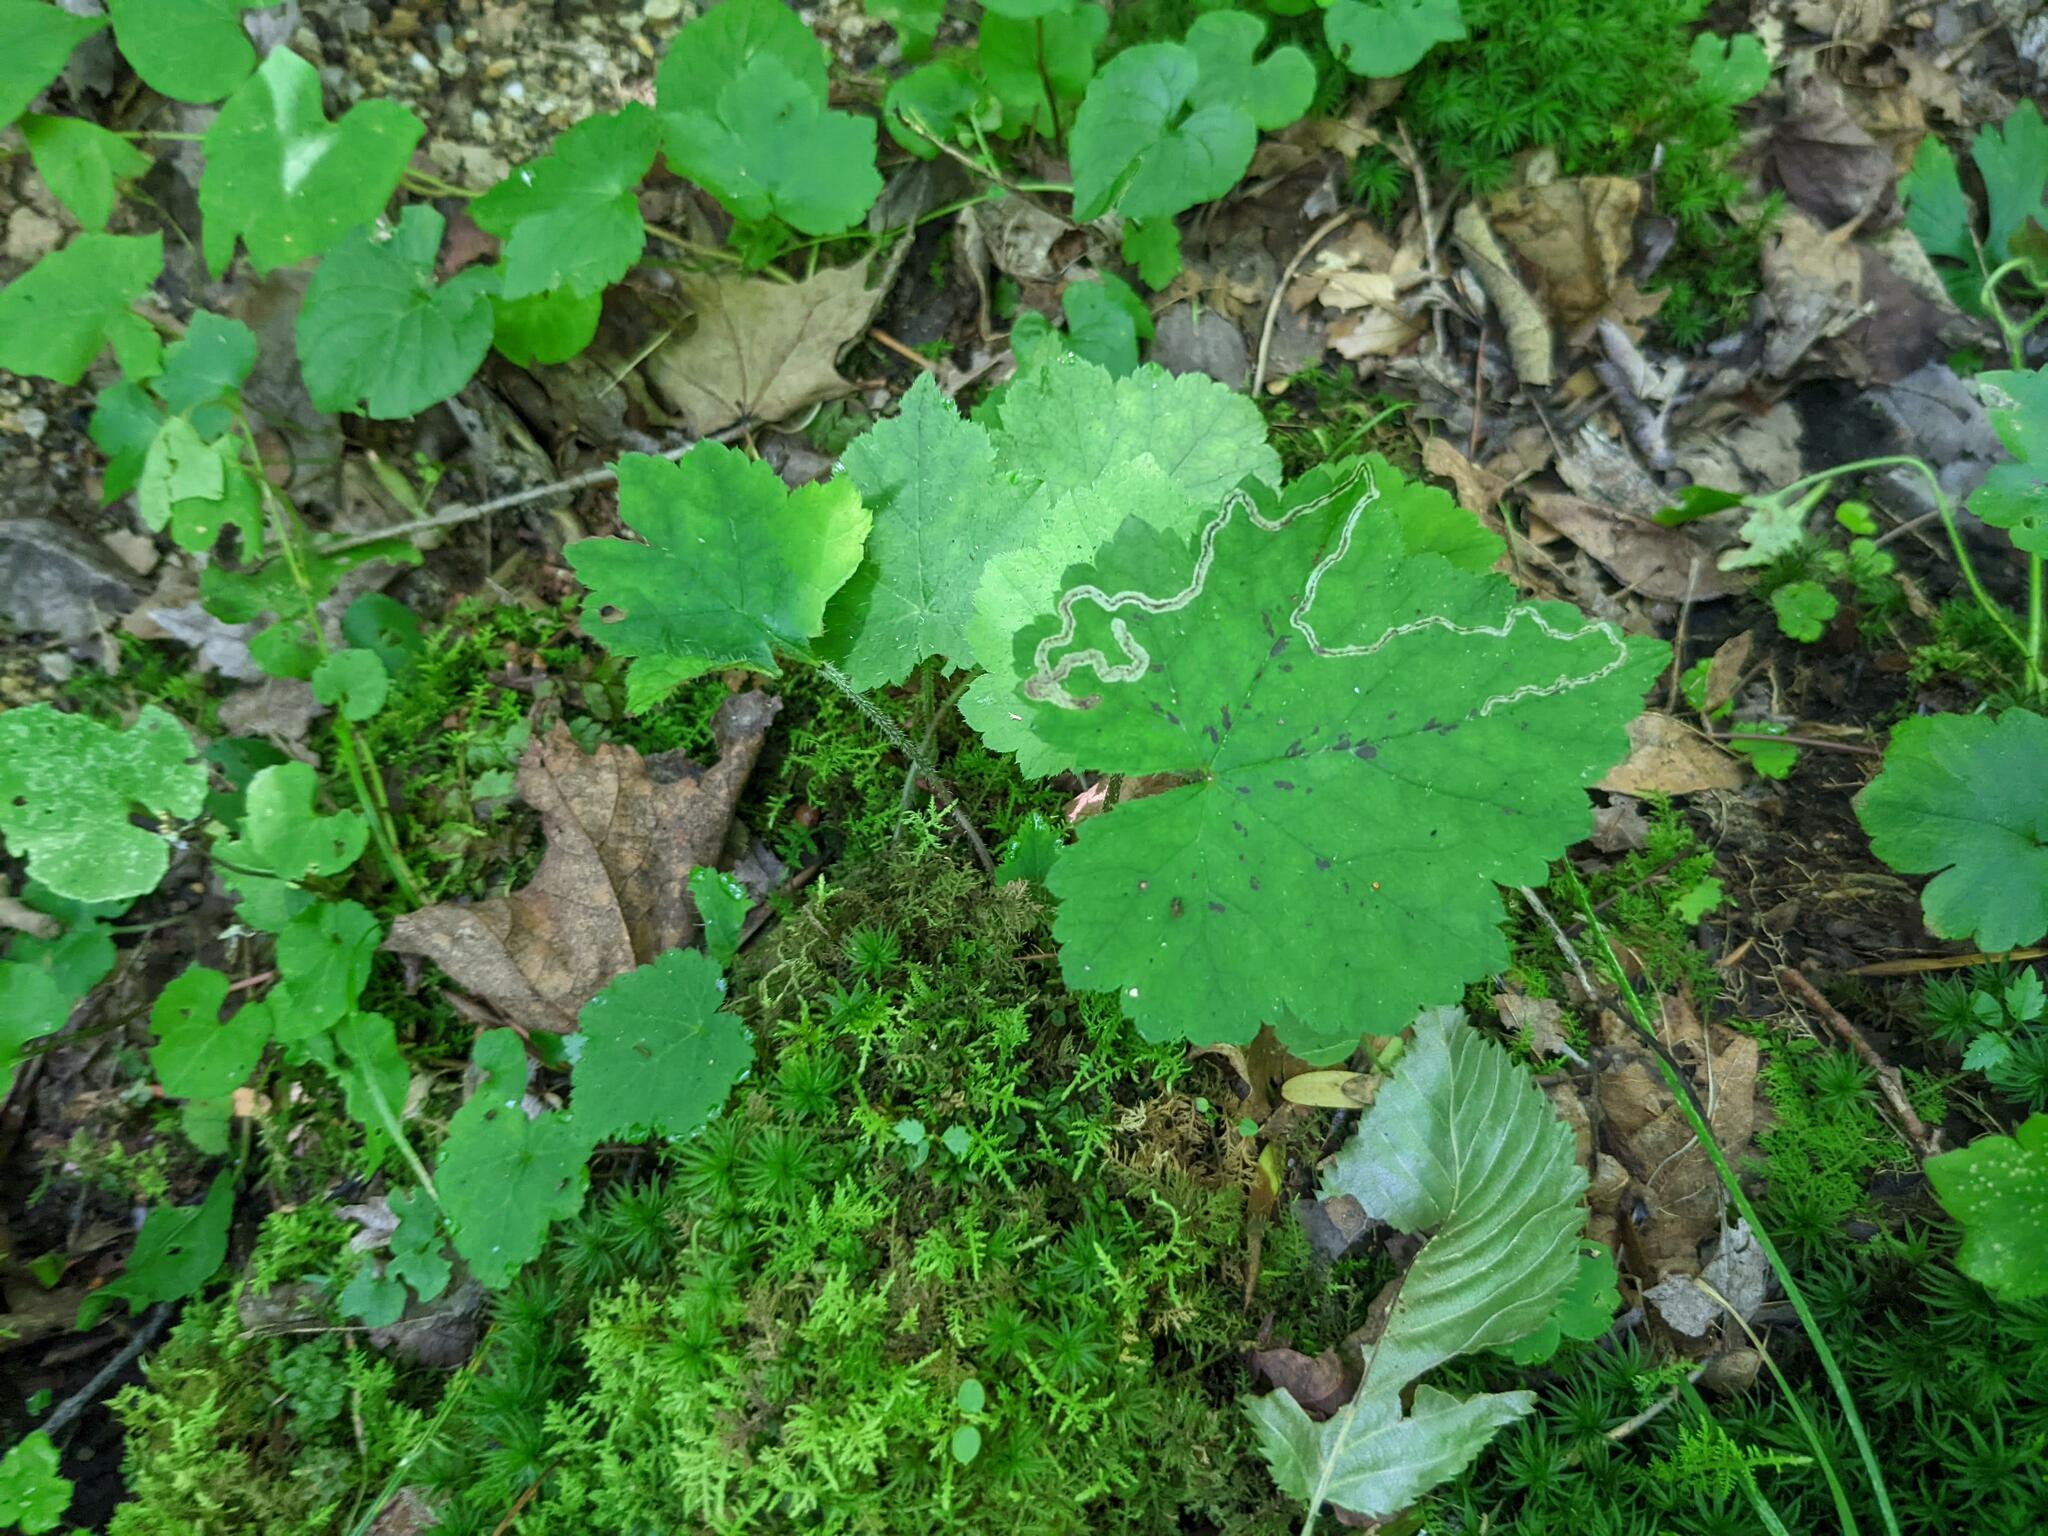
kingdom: Plantae
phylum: Tracheophyta
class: Magnoliopsida
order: Saxifragales
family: Saxifragaceae
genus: Tiarella
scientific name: Tiarella stolonifera
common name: Stoloniferous foamflower
